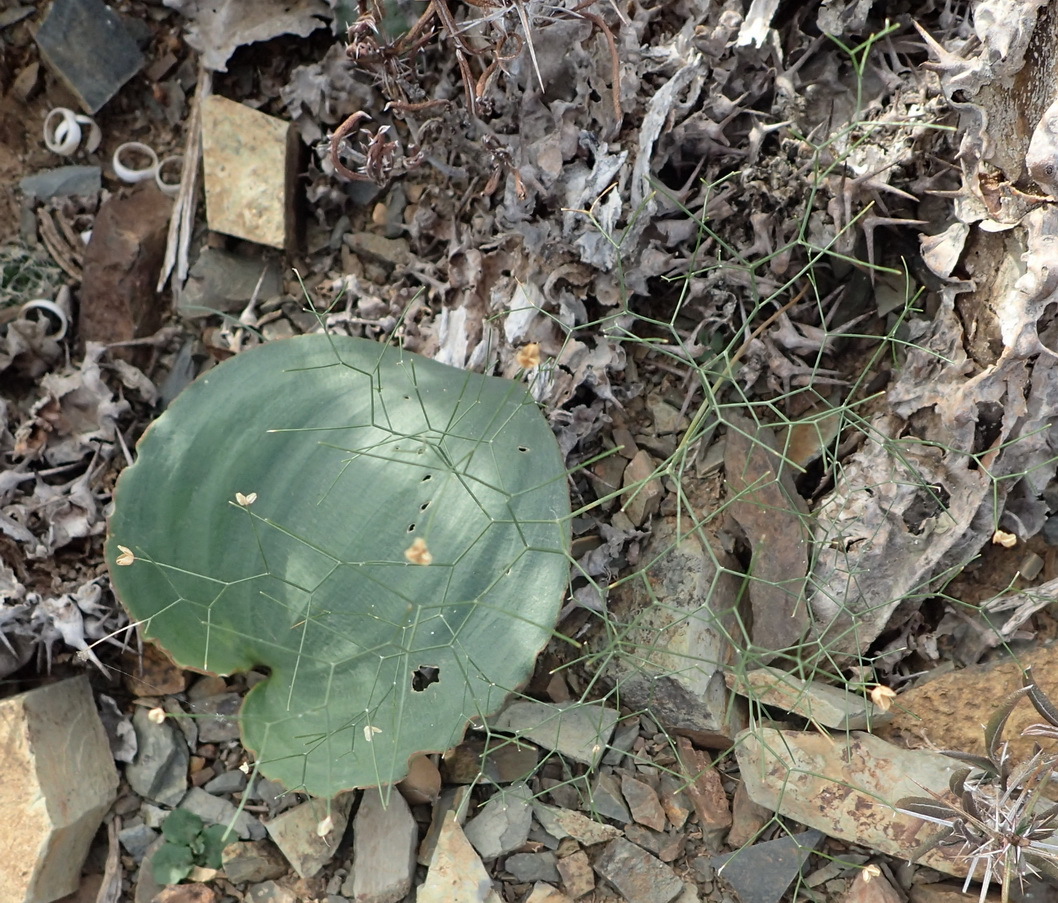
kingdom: Plantae
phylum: Tracheophyta
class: Liliopsida
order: Asparagales
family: Asparagaceae
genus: Drimia
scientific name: Drimia intricata
